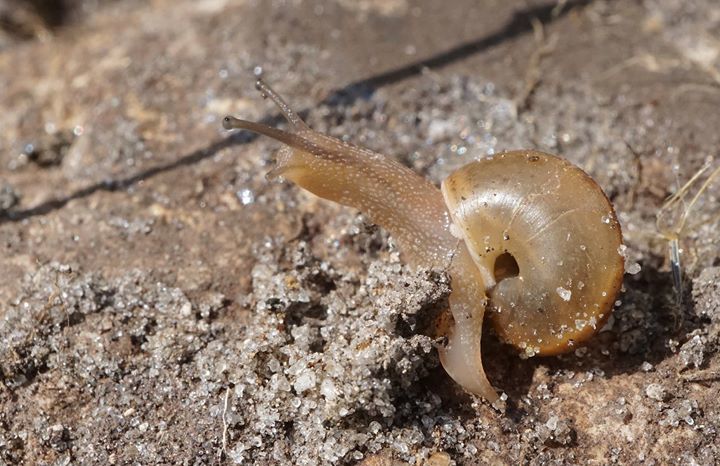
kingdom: Animalia
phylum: Mollusca
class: Gastropoda
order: Stylommatophora
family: Camaenidae
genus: Bradybaena
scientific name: Bradybaena similaris
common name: Asian trampsnail
